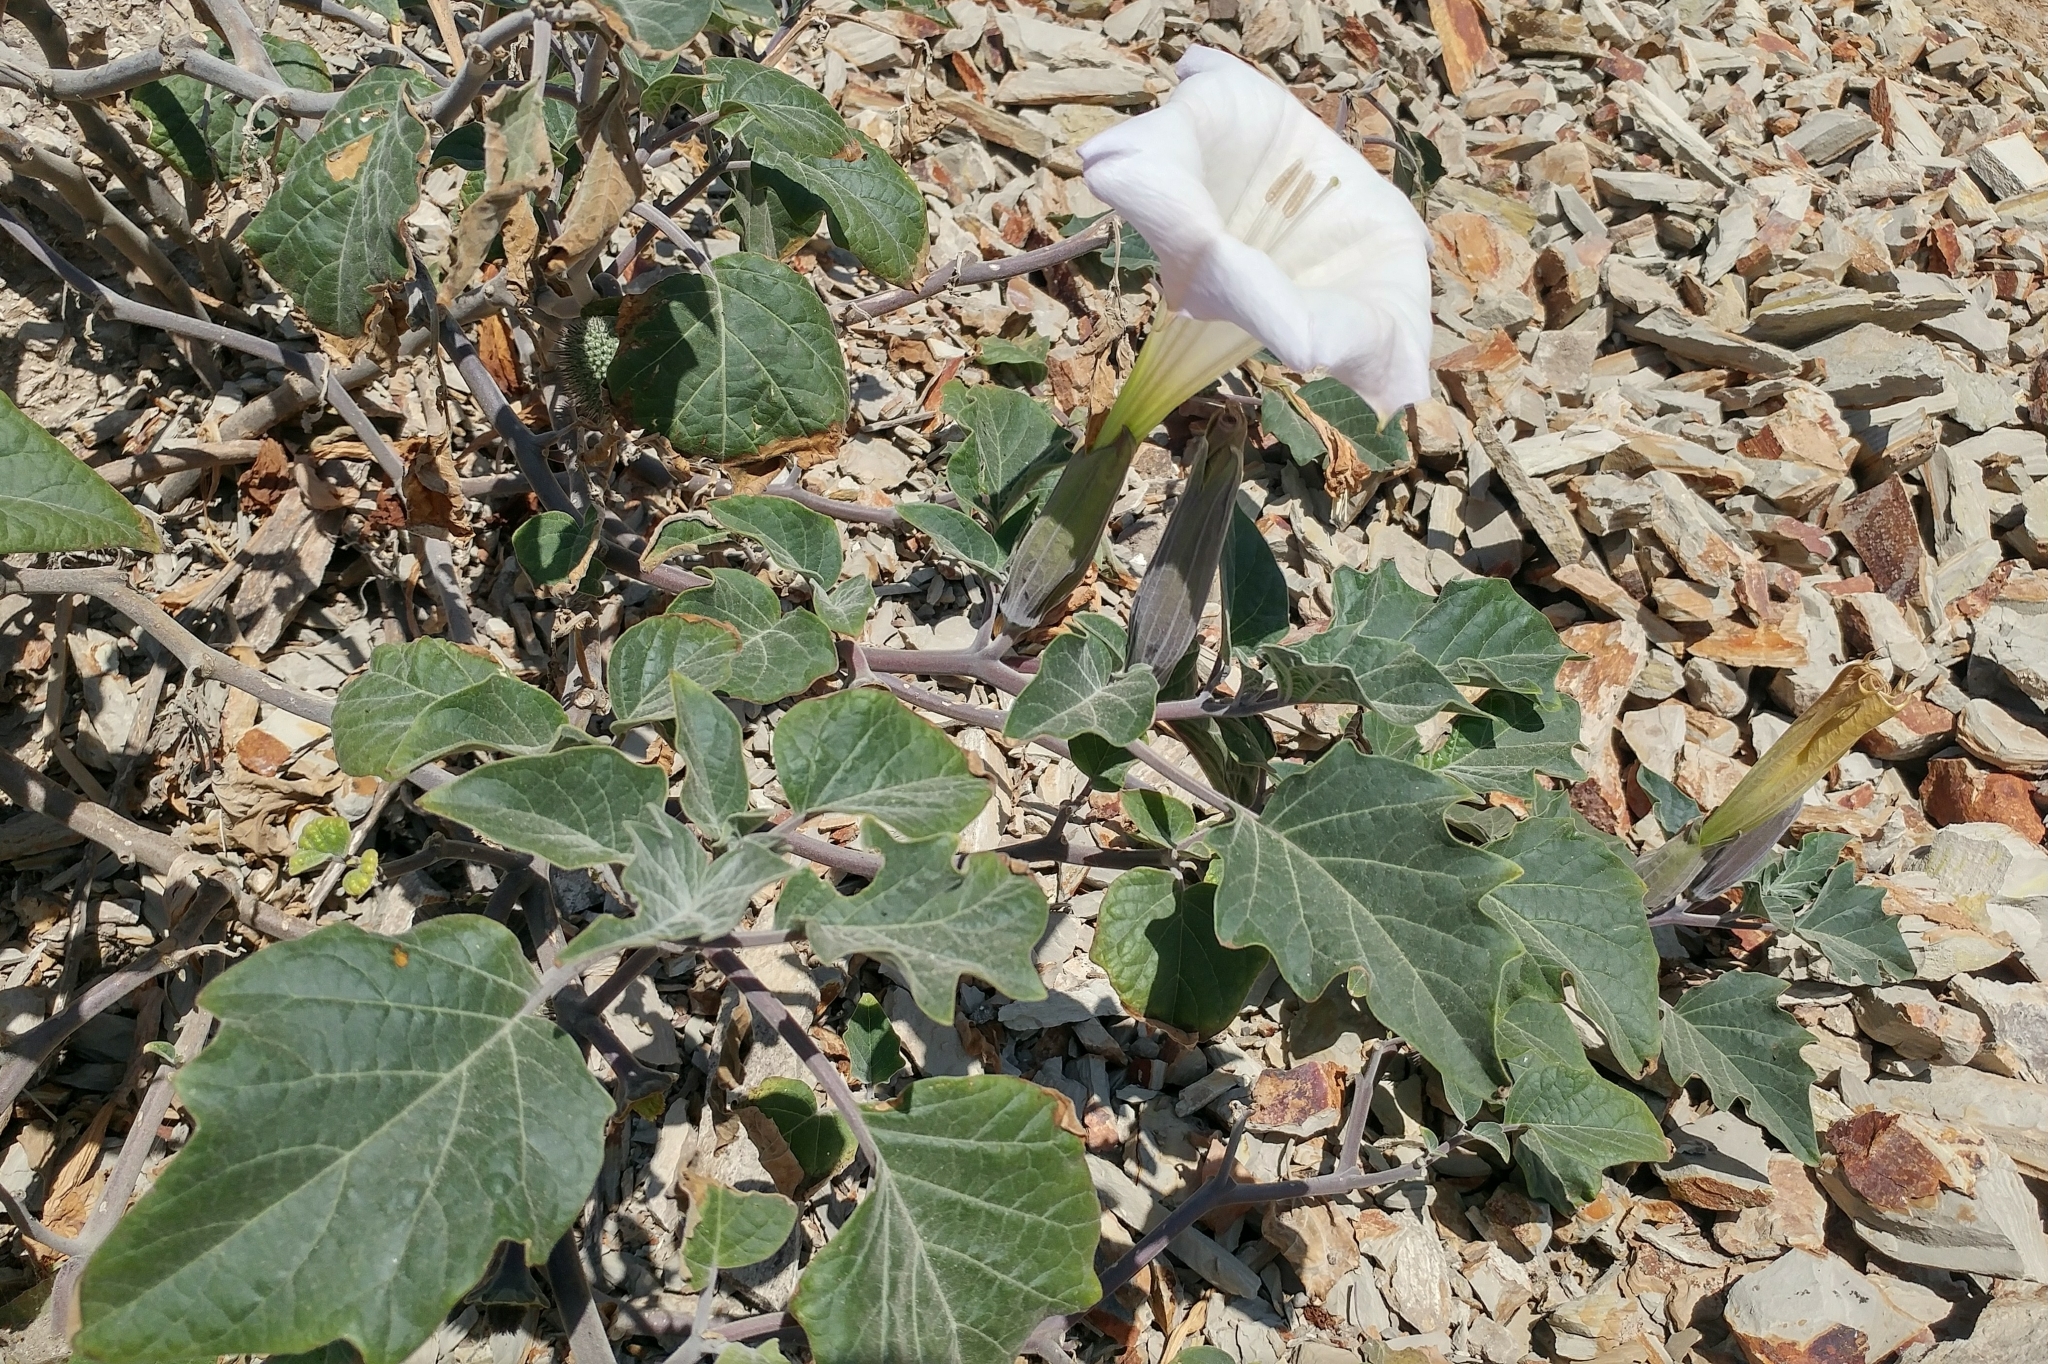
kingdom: Plantae
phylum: Tracheophyta
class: Magnoliopsida
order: Solanales
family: Solanaceae
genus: Datura
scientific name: Datura wrightii
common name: Sacred thorn-apple
